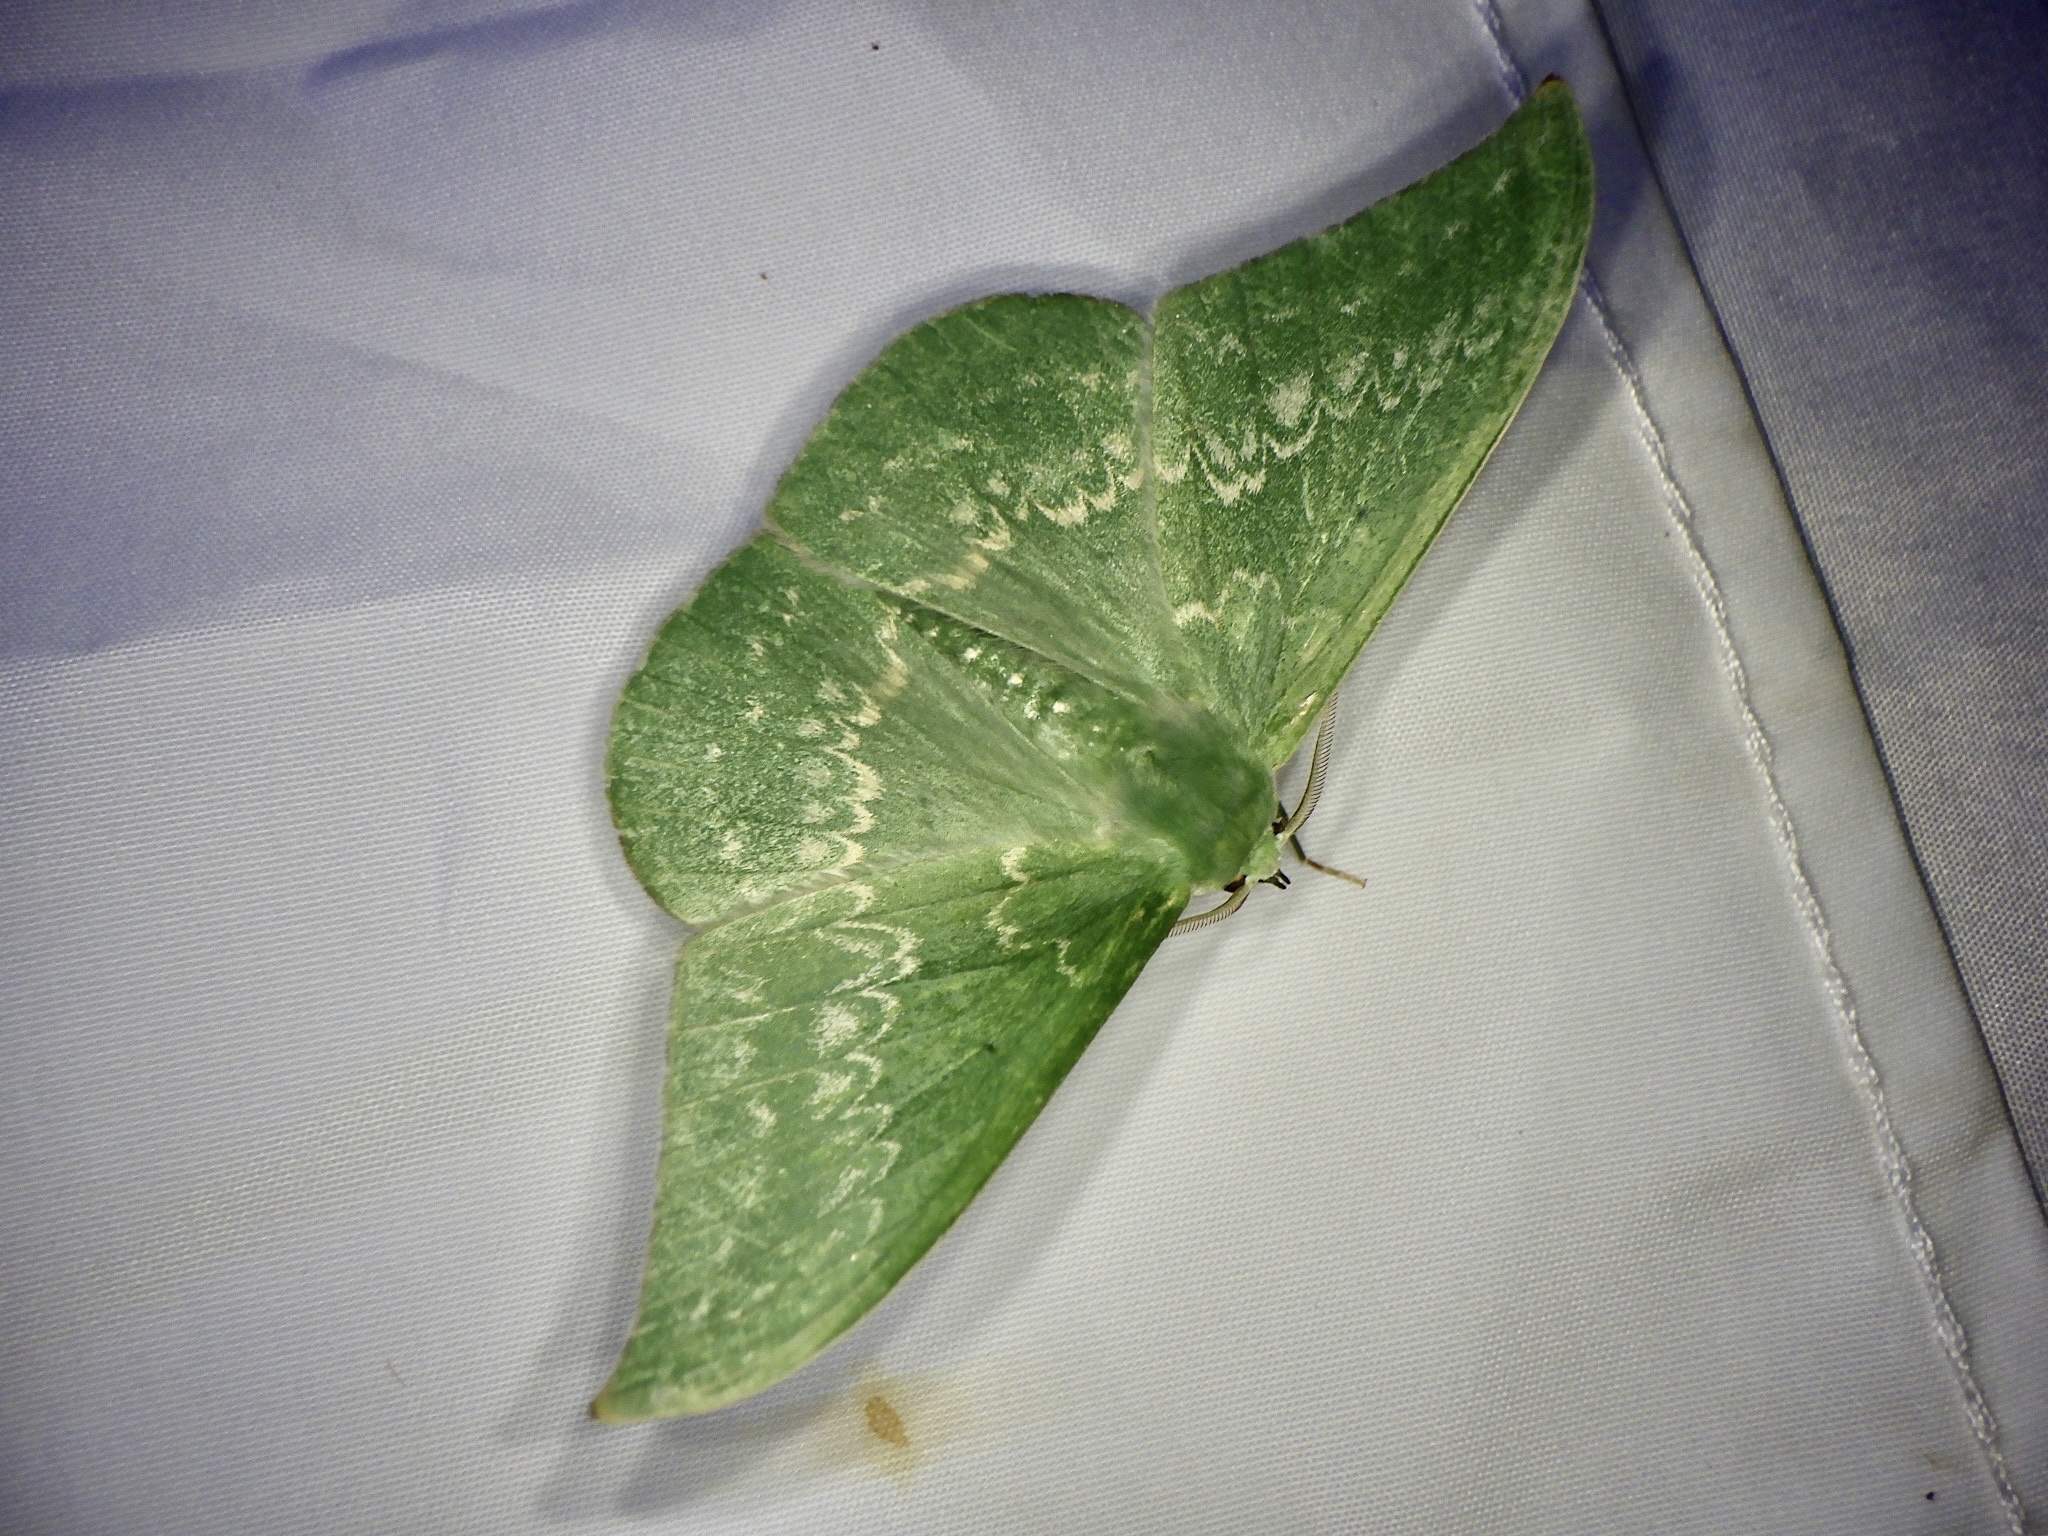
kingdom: Animalia
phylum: Arthropoda
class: Insecta
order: Lepidoptera
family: Geometridae
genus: Tanaorhinus
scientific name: Tanaorhinus reciprocata
